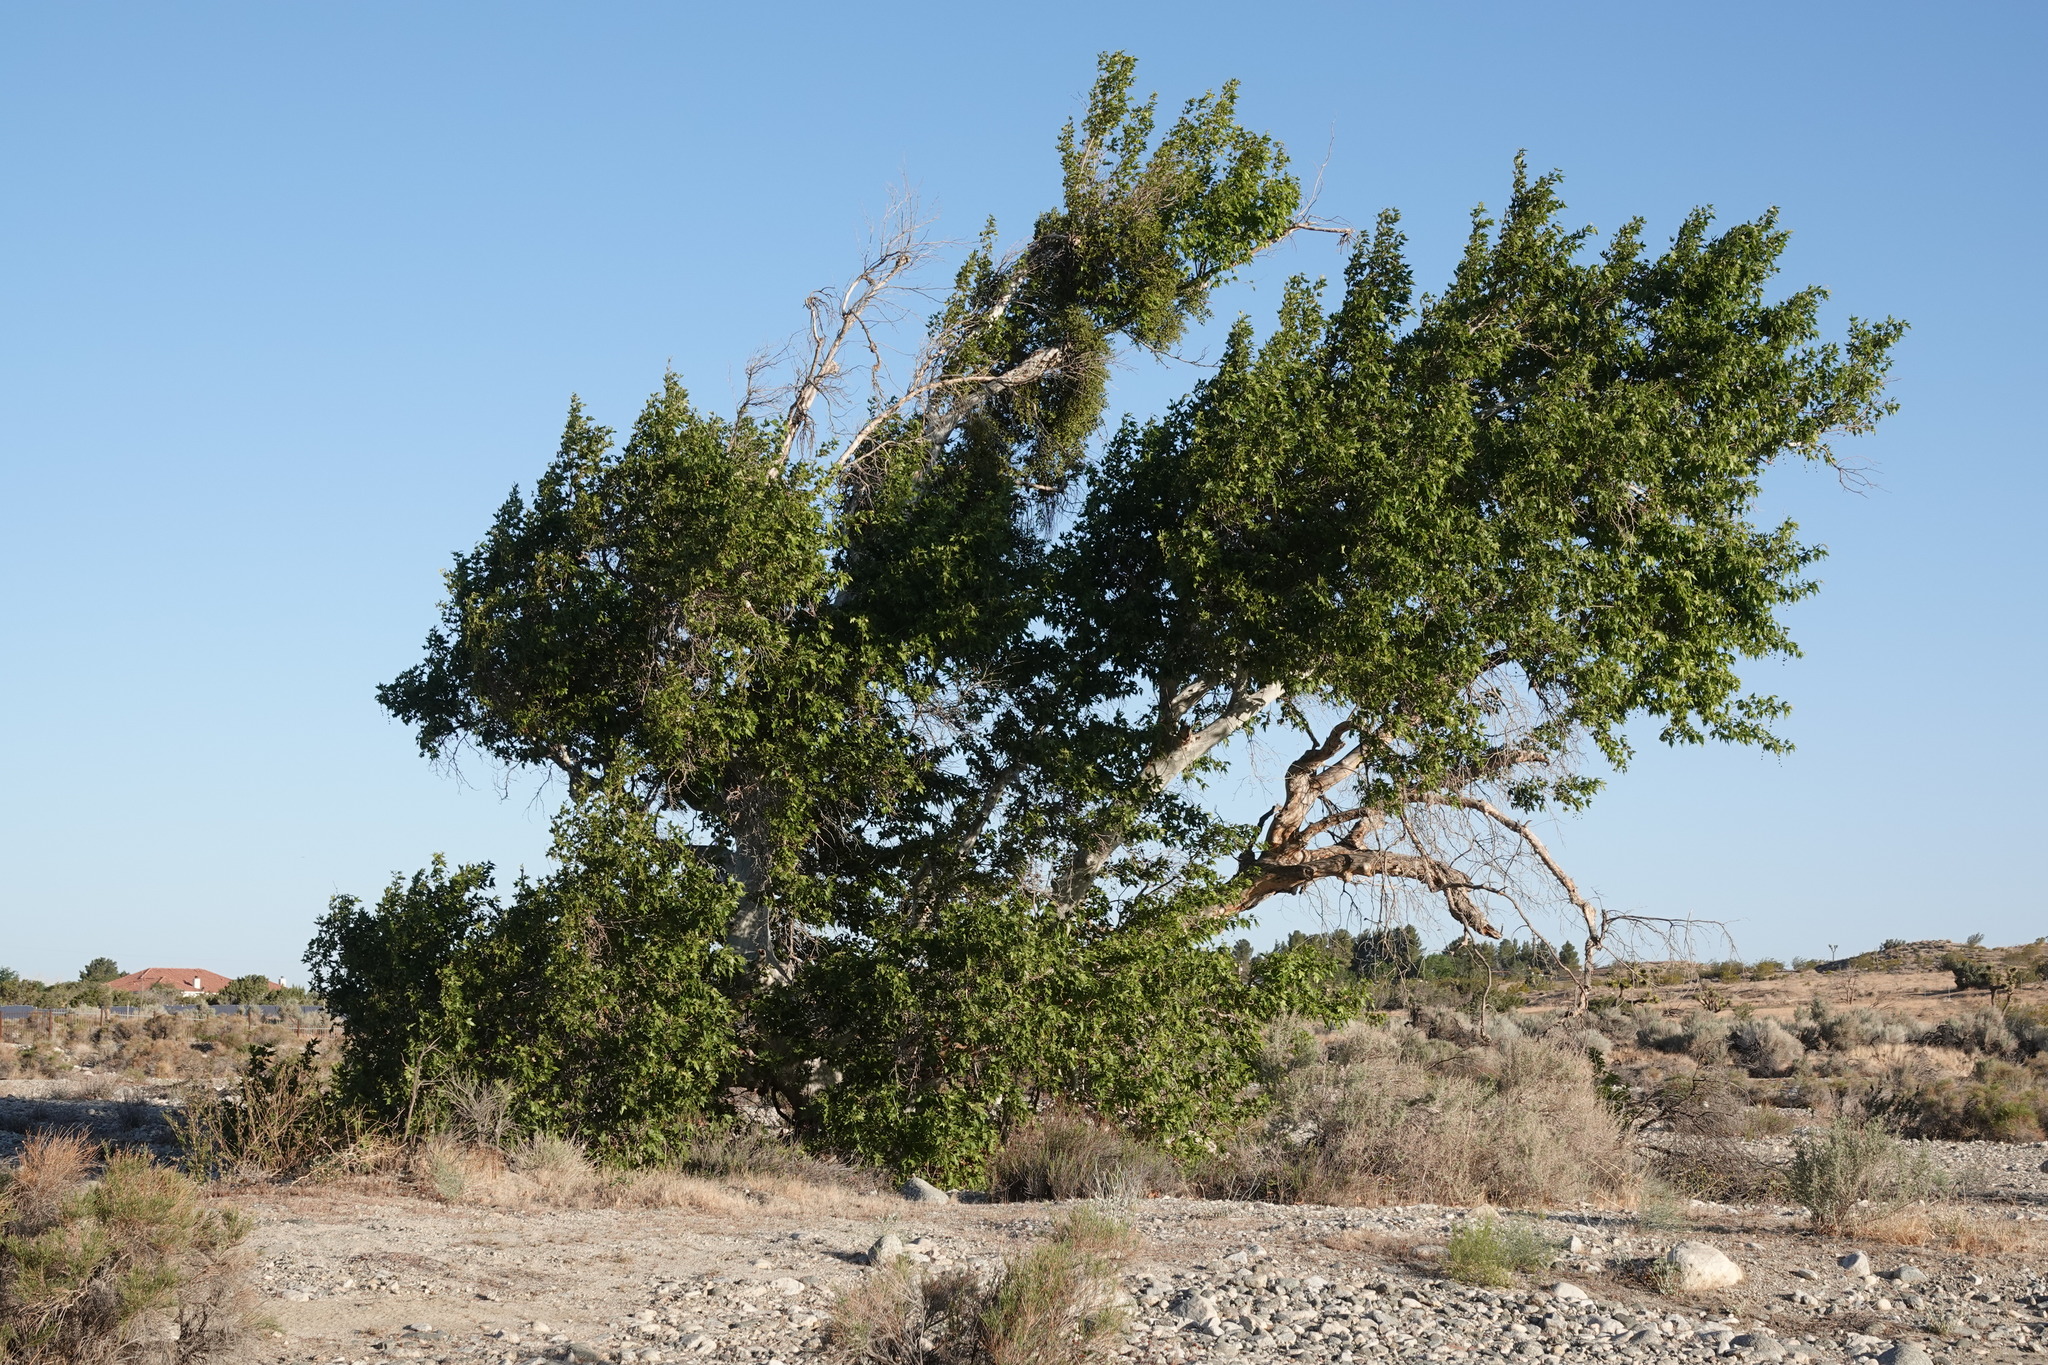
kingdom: Plantae
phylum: Tracheophyta
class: Magnoliopsida
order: Proteales
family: Platanaceae
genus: Platanus
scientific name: Platanus racemosa
